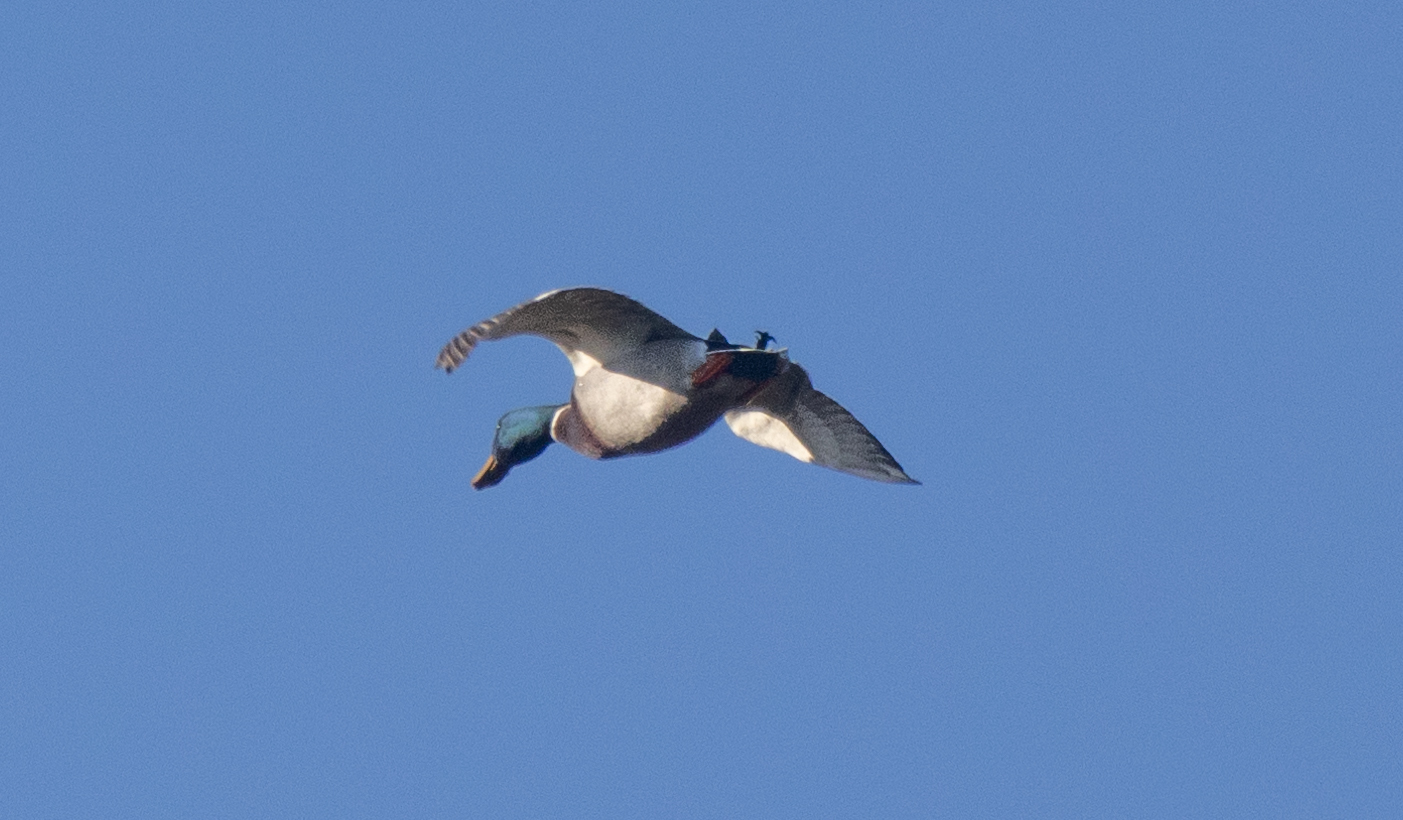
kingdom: Animalia
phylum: Chordata
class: Aves
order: Anseriformes
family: Anatidae
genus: Anas
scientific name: Anas platyrhynchos
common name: Mallard
